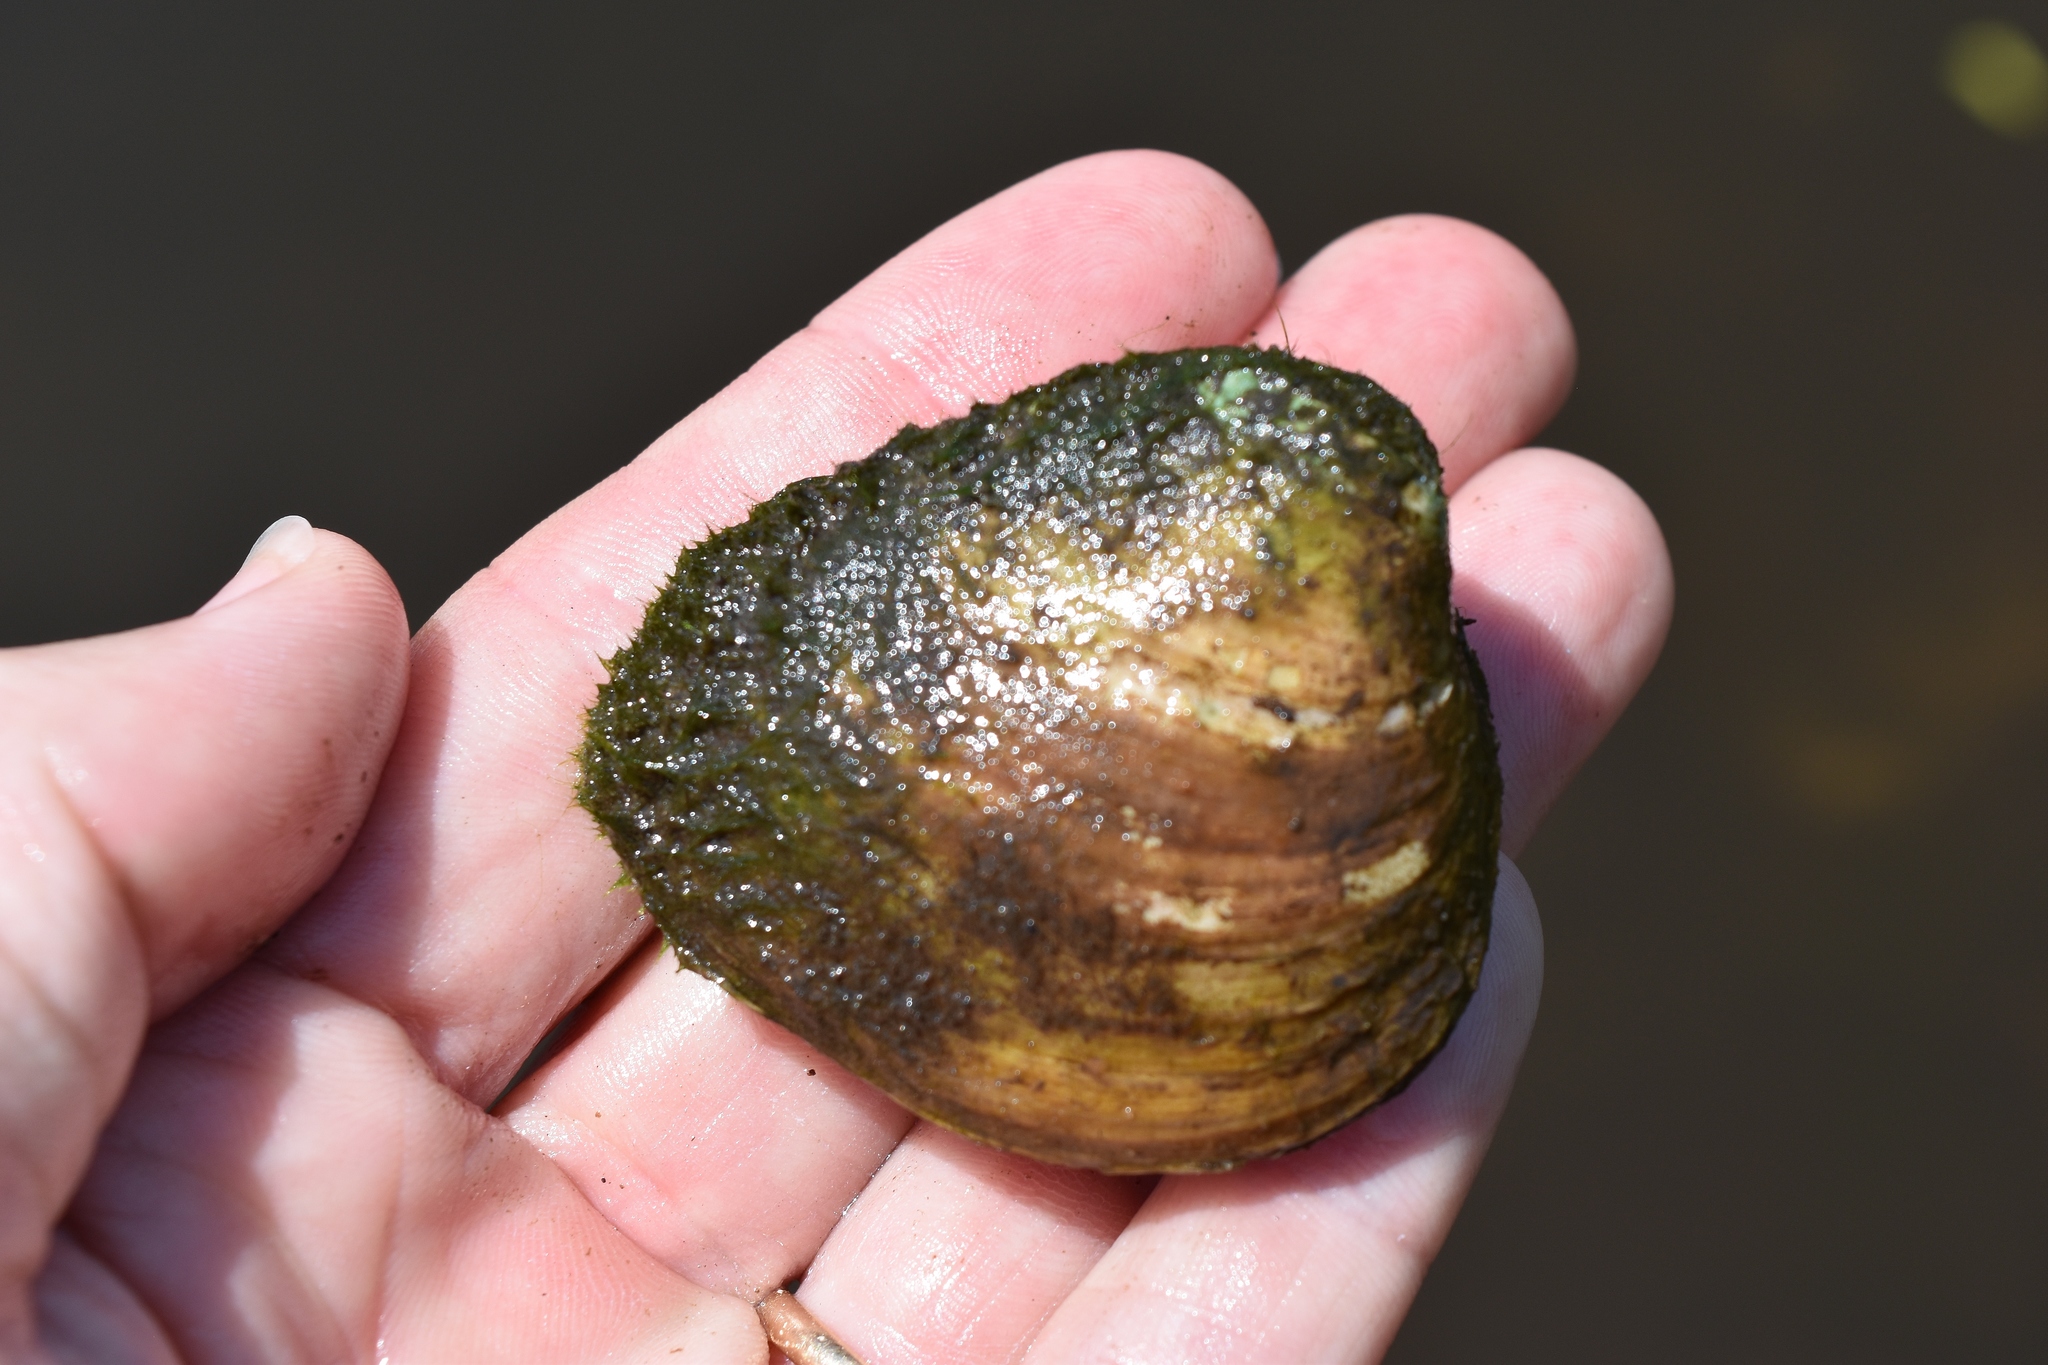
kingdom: Animalia
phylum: Mollusca
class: Bivalvia
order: Venerida
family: Mactridae
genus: Rangia
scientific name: Rangia cuneata
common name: Atlantic rangia
